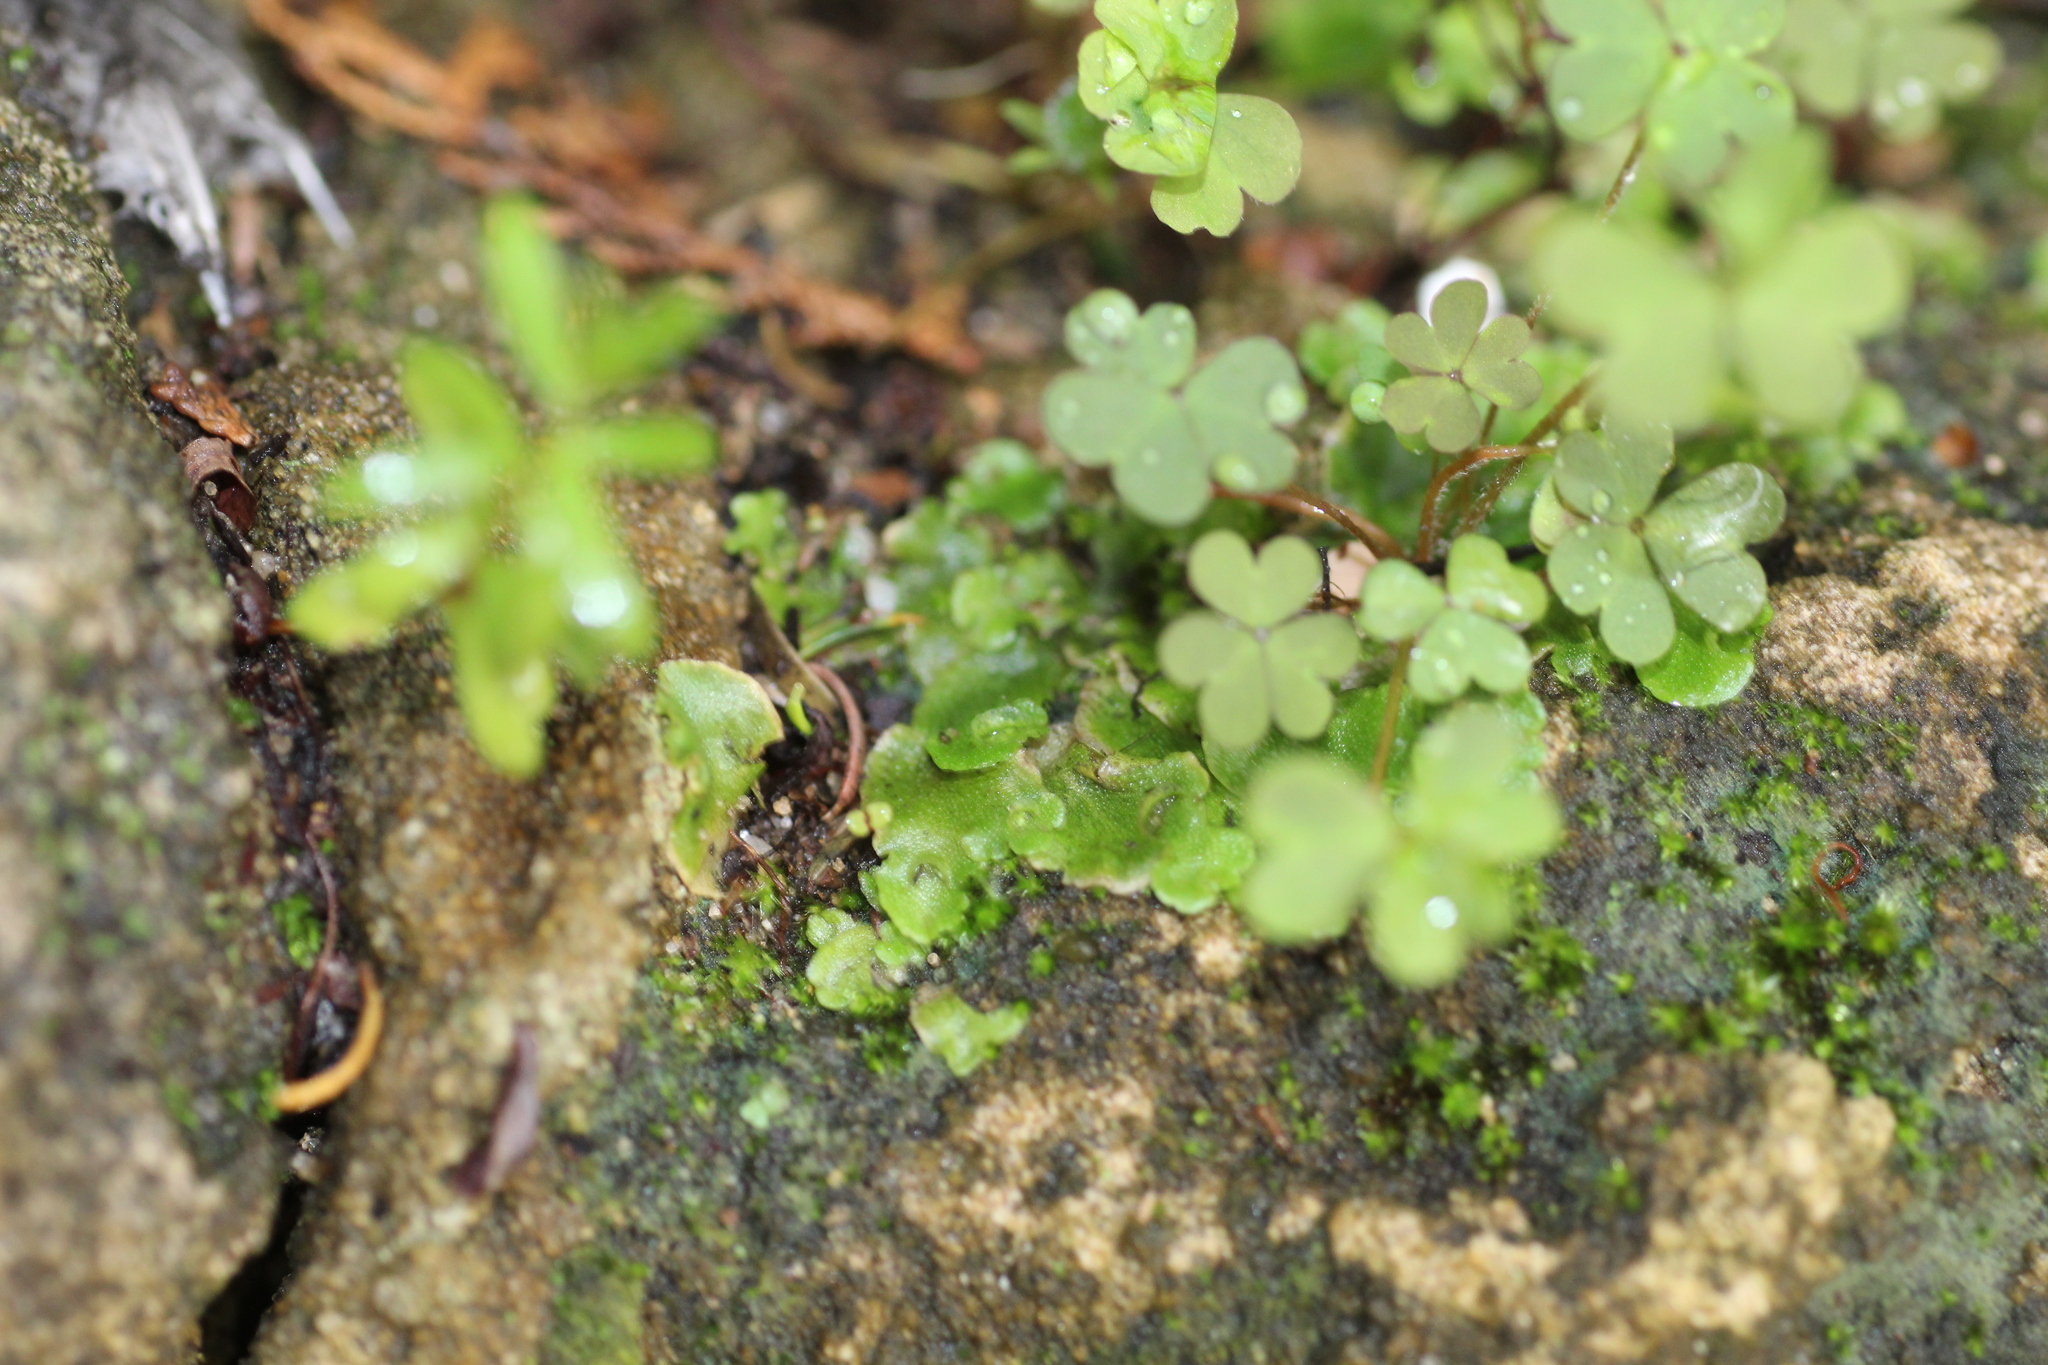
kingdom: Plantae
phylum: Marchantiophyta
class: Marchantiopsida
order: Lunulariales
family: Lunulariaceae
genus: Lunularia
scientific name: Lunularia cruciata
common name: Crescent-cup liverwort
